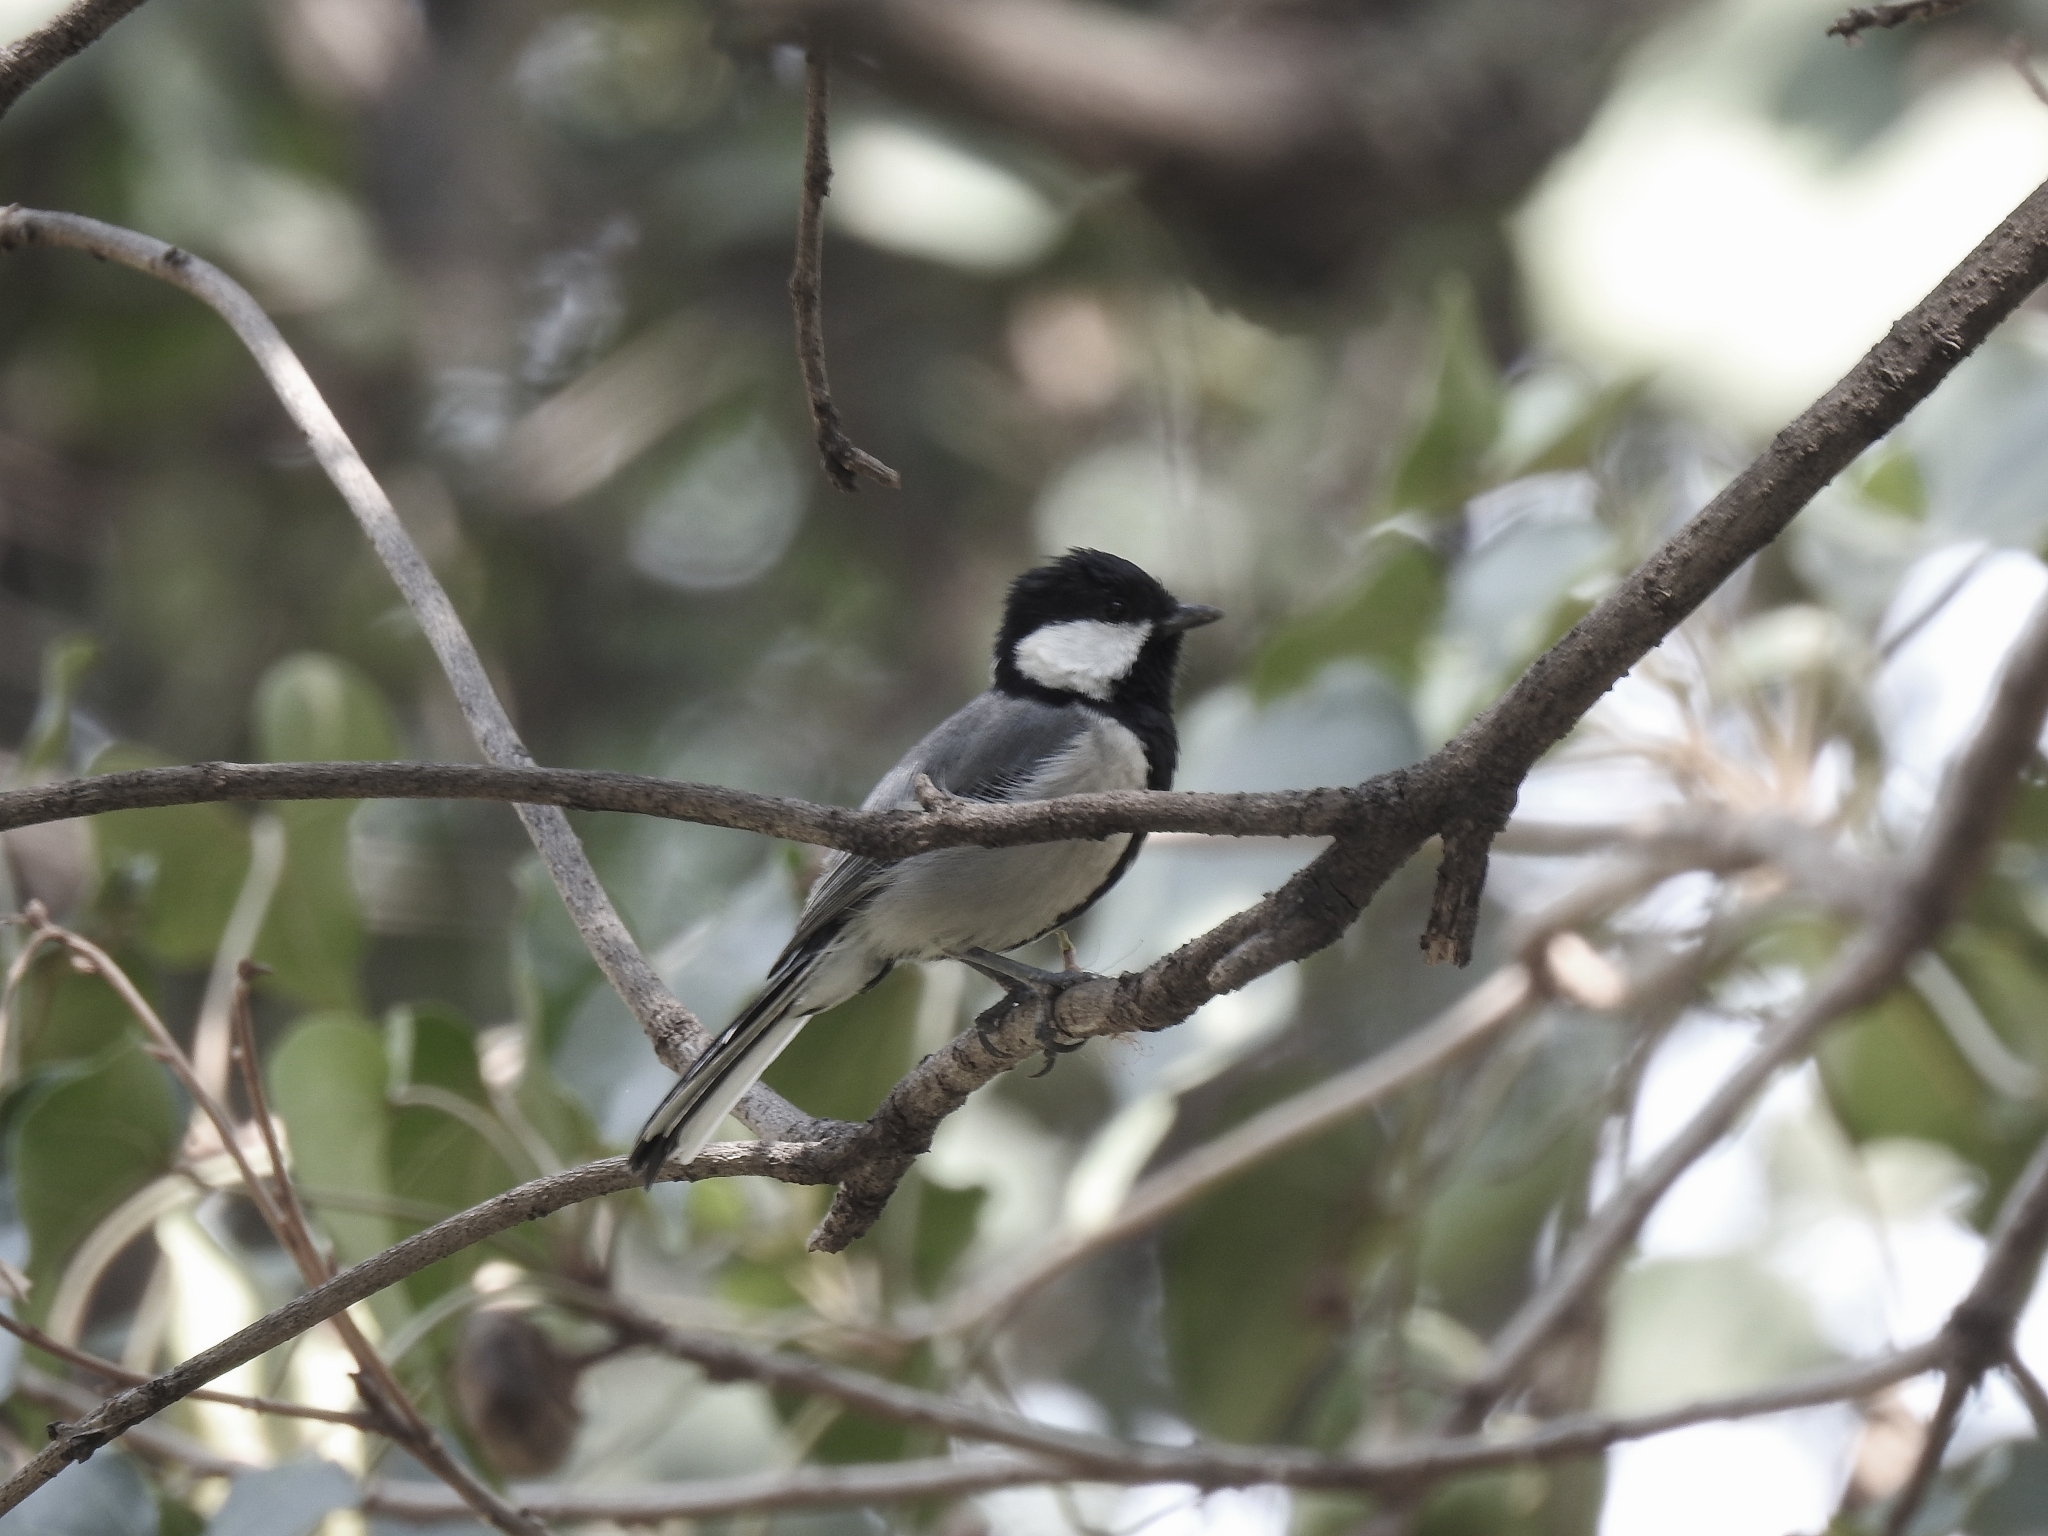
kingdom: Animalia
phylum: Chordata
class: Aves
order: Passeriformes
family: Paridae
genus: Parus
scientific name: Parus cinereus
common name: Cinereous tit
